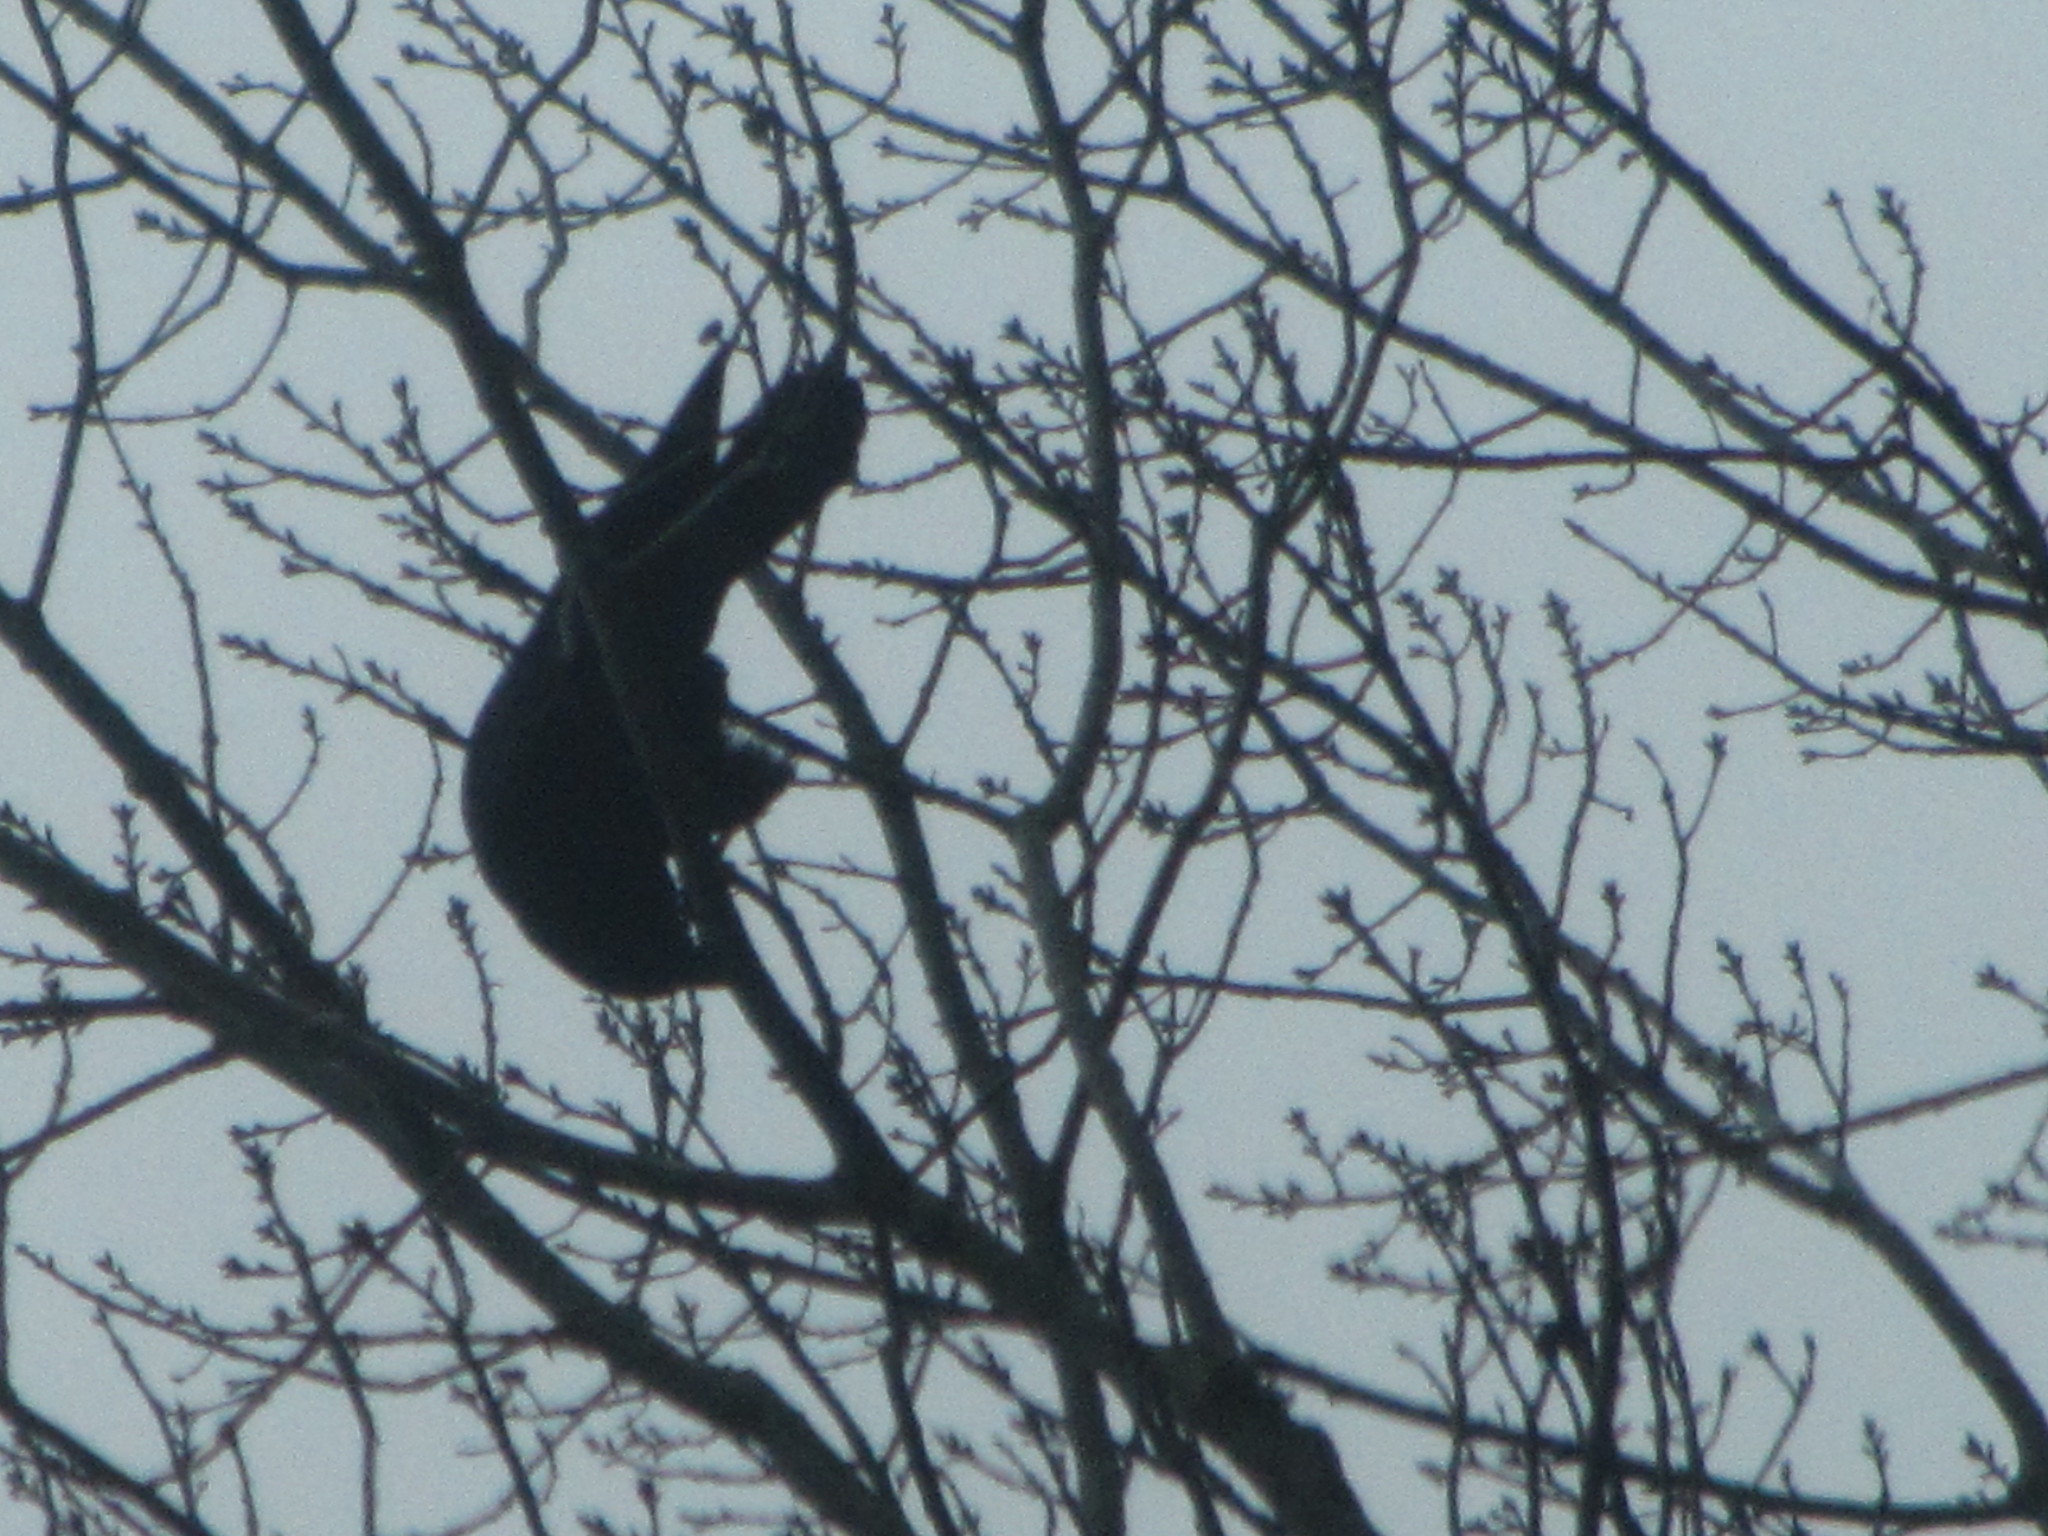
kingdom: Animalia
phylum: Chordata
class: Aves
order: Passeriformes
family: Corvidae
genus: Corvus
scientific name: Corvus brachyrhynchos
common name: American crow
